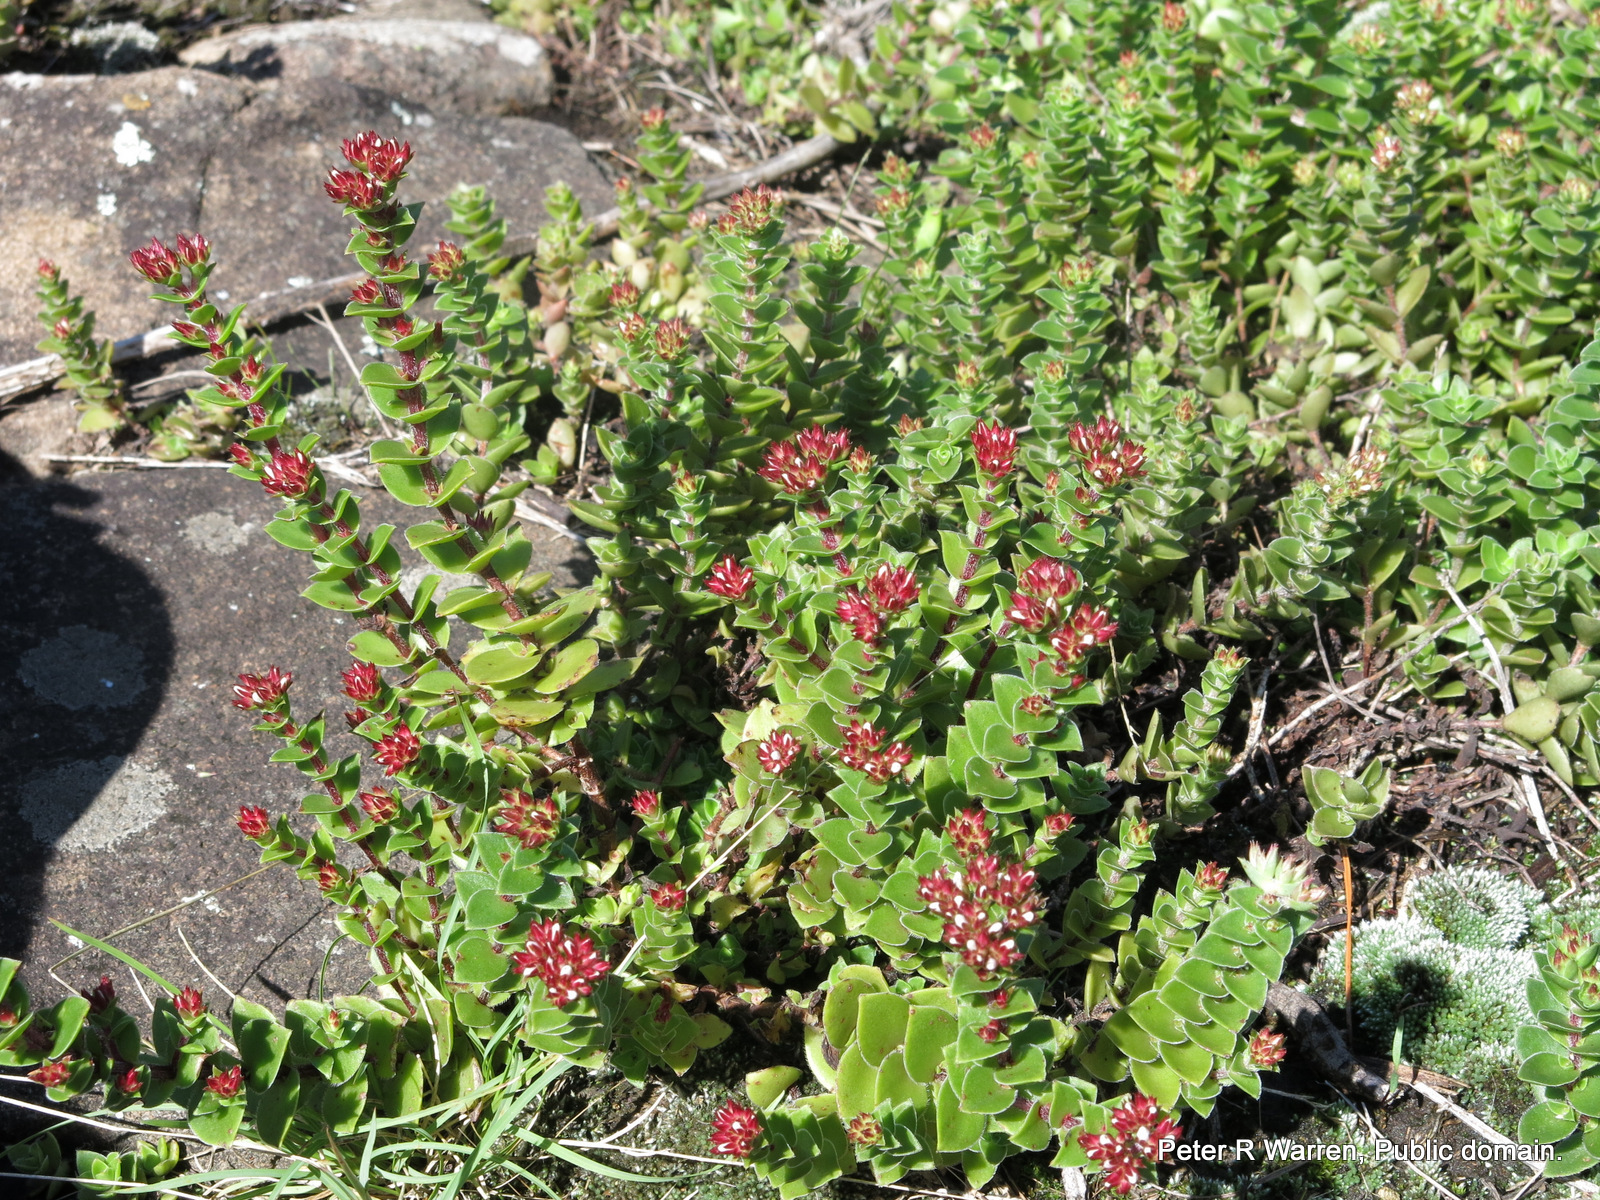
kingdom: Plantae
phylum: Tracheophyta
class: Magnoliopsida
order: Saxifragales
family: Crassulaceae
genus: Crassula
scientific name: Crassula obovata
